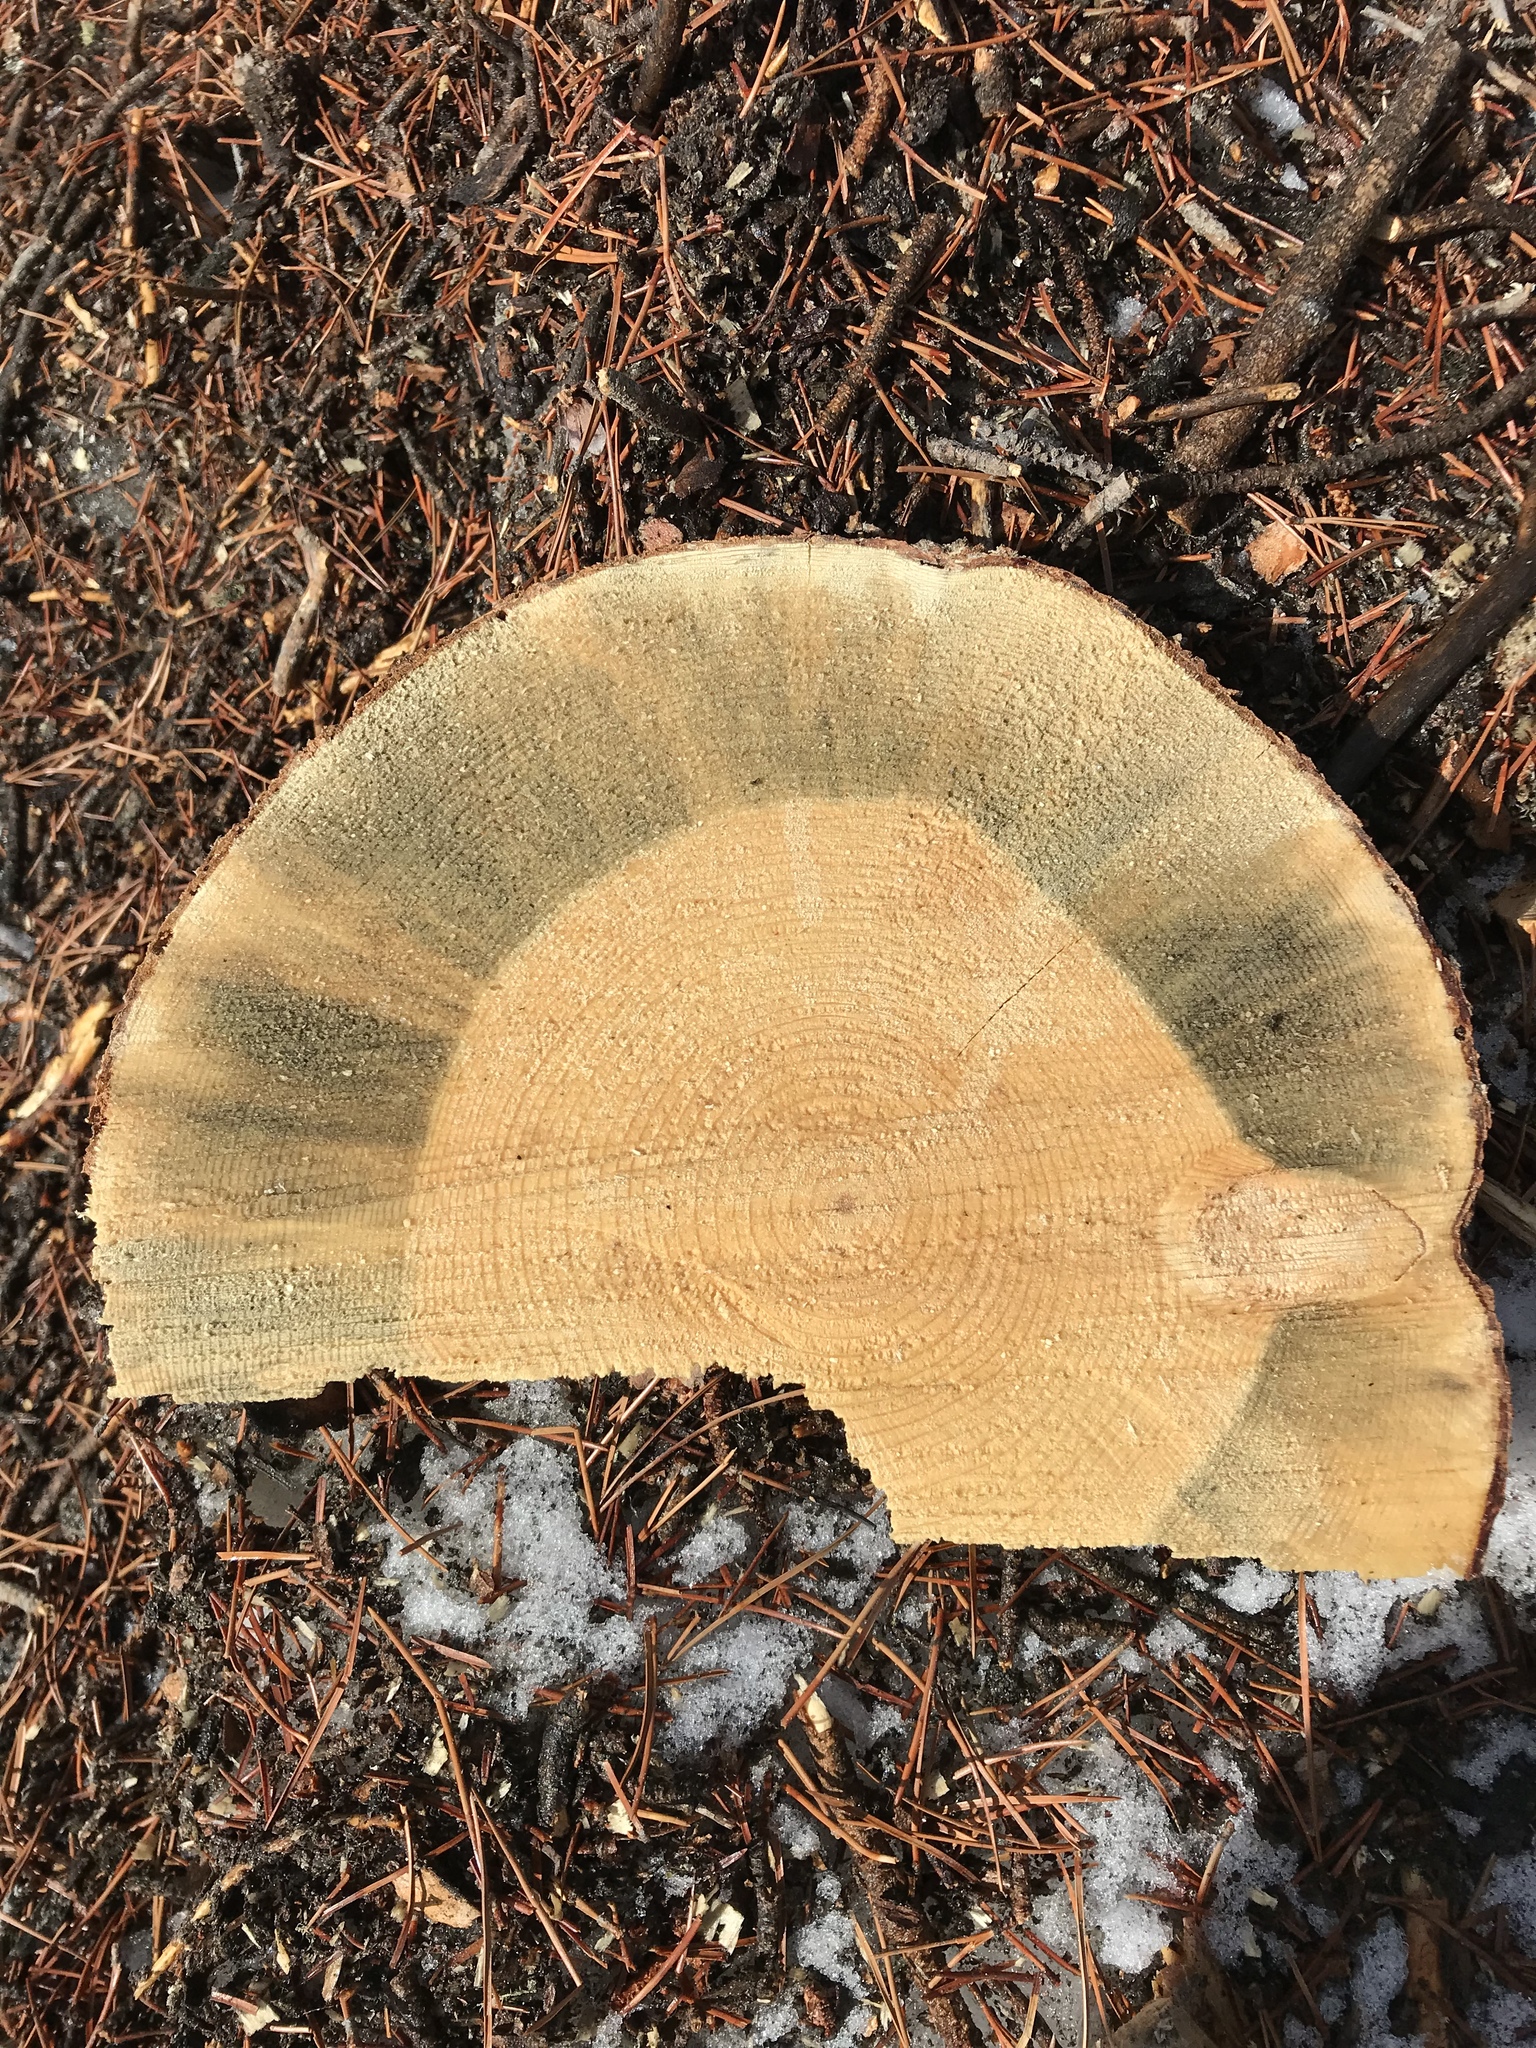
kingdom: Fungi
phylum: Ascomycota
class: Sordariomycetes
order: Microascales
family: Ceratocystidaceae
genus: Grosmannia
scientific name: Grosmannia clavigera
